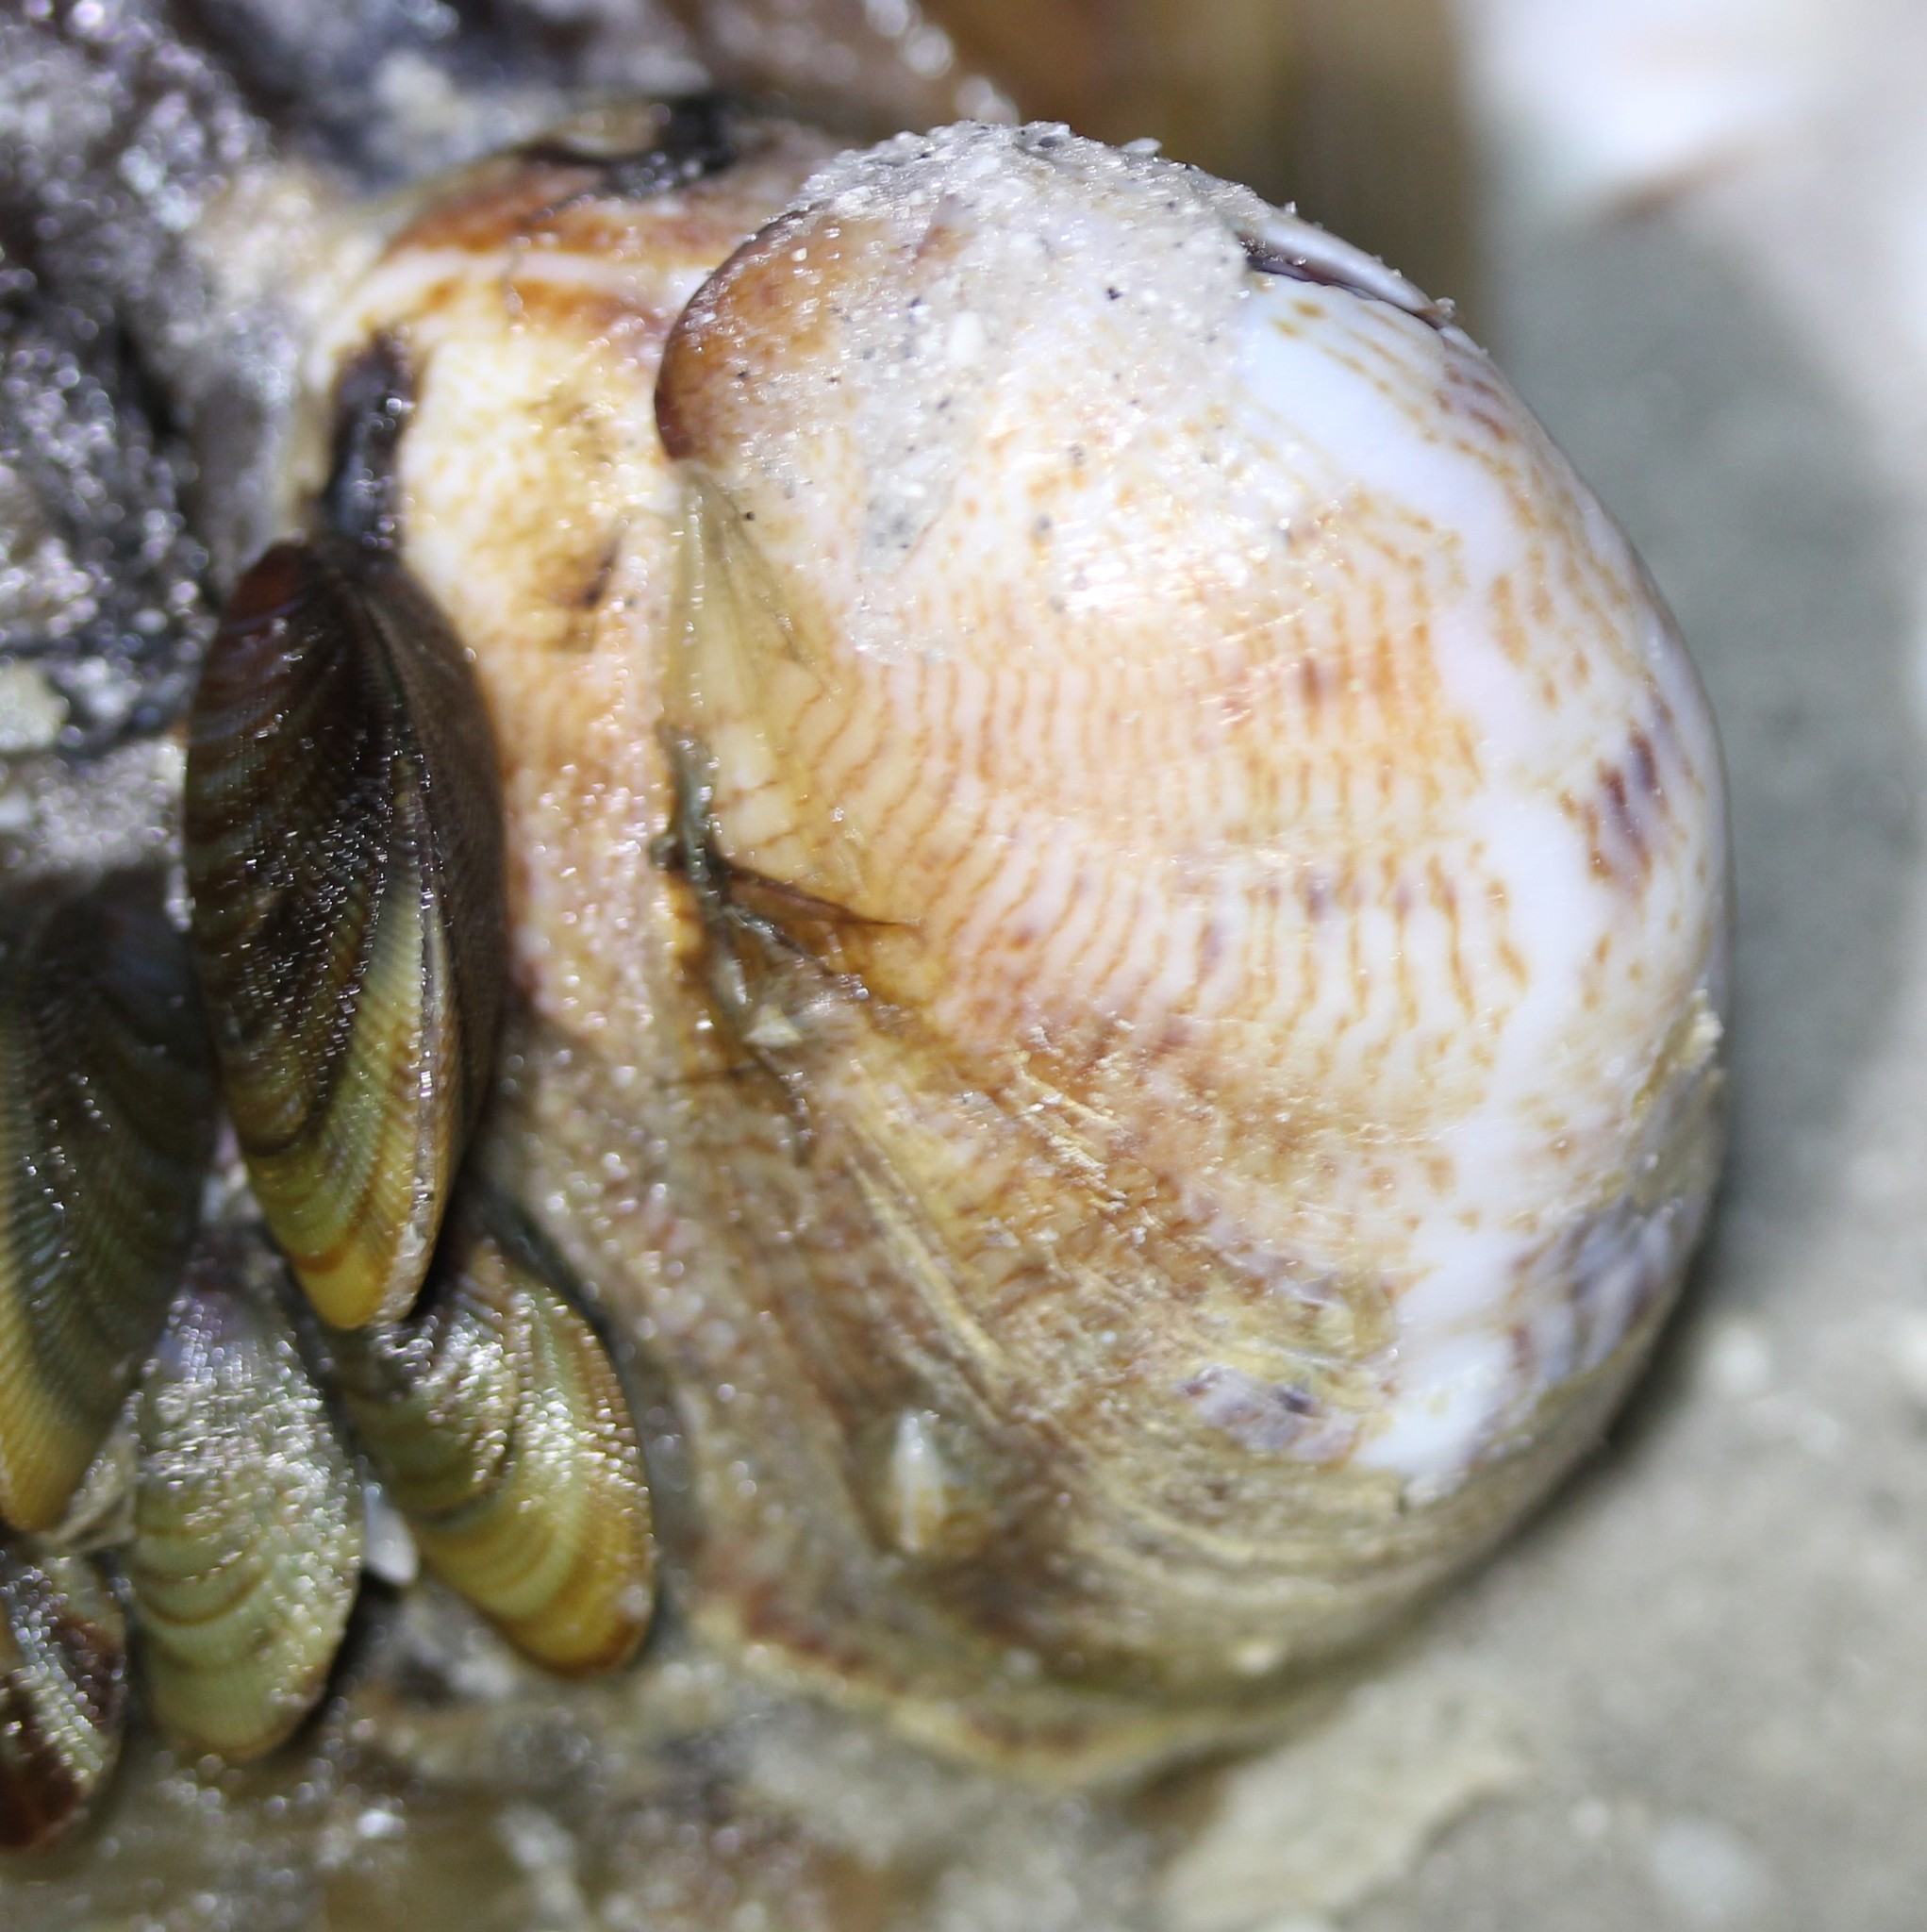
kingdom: Animalia
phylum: Mollusca
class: Gastropoda
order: Littorinimorpha
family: Calyptraeidae
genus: Crepidula
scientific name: Crepidula fornicata
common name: Slipper limpet
